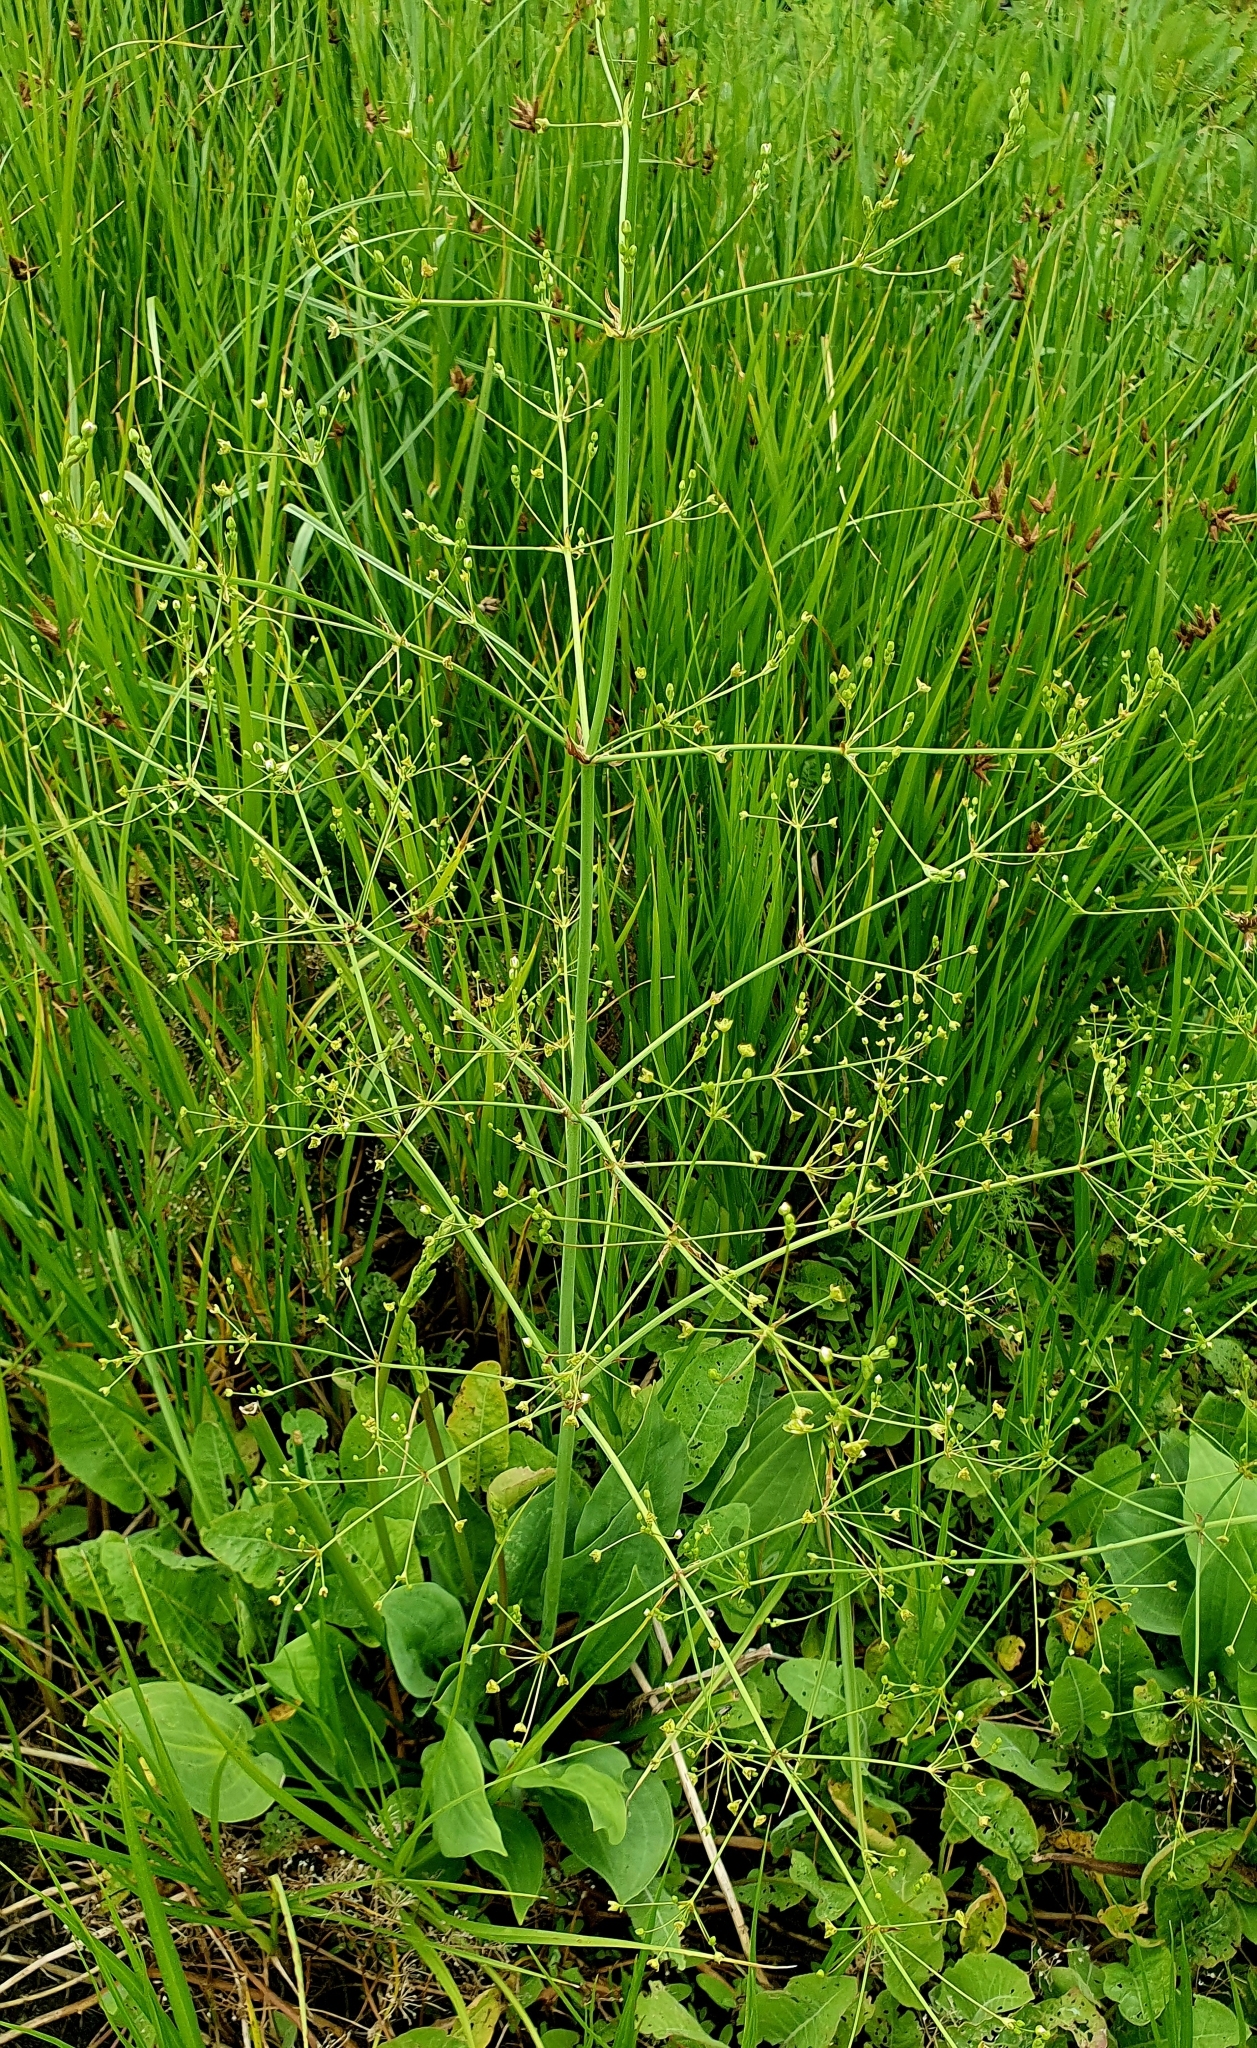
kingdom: Plantae
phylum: Tracheophyta
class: Liliopsida
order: Alismatales
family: Alismataceae
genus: Alisma
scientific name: Alisma plantago-aquatica
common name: Water-plantain
